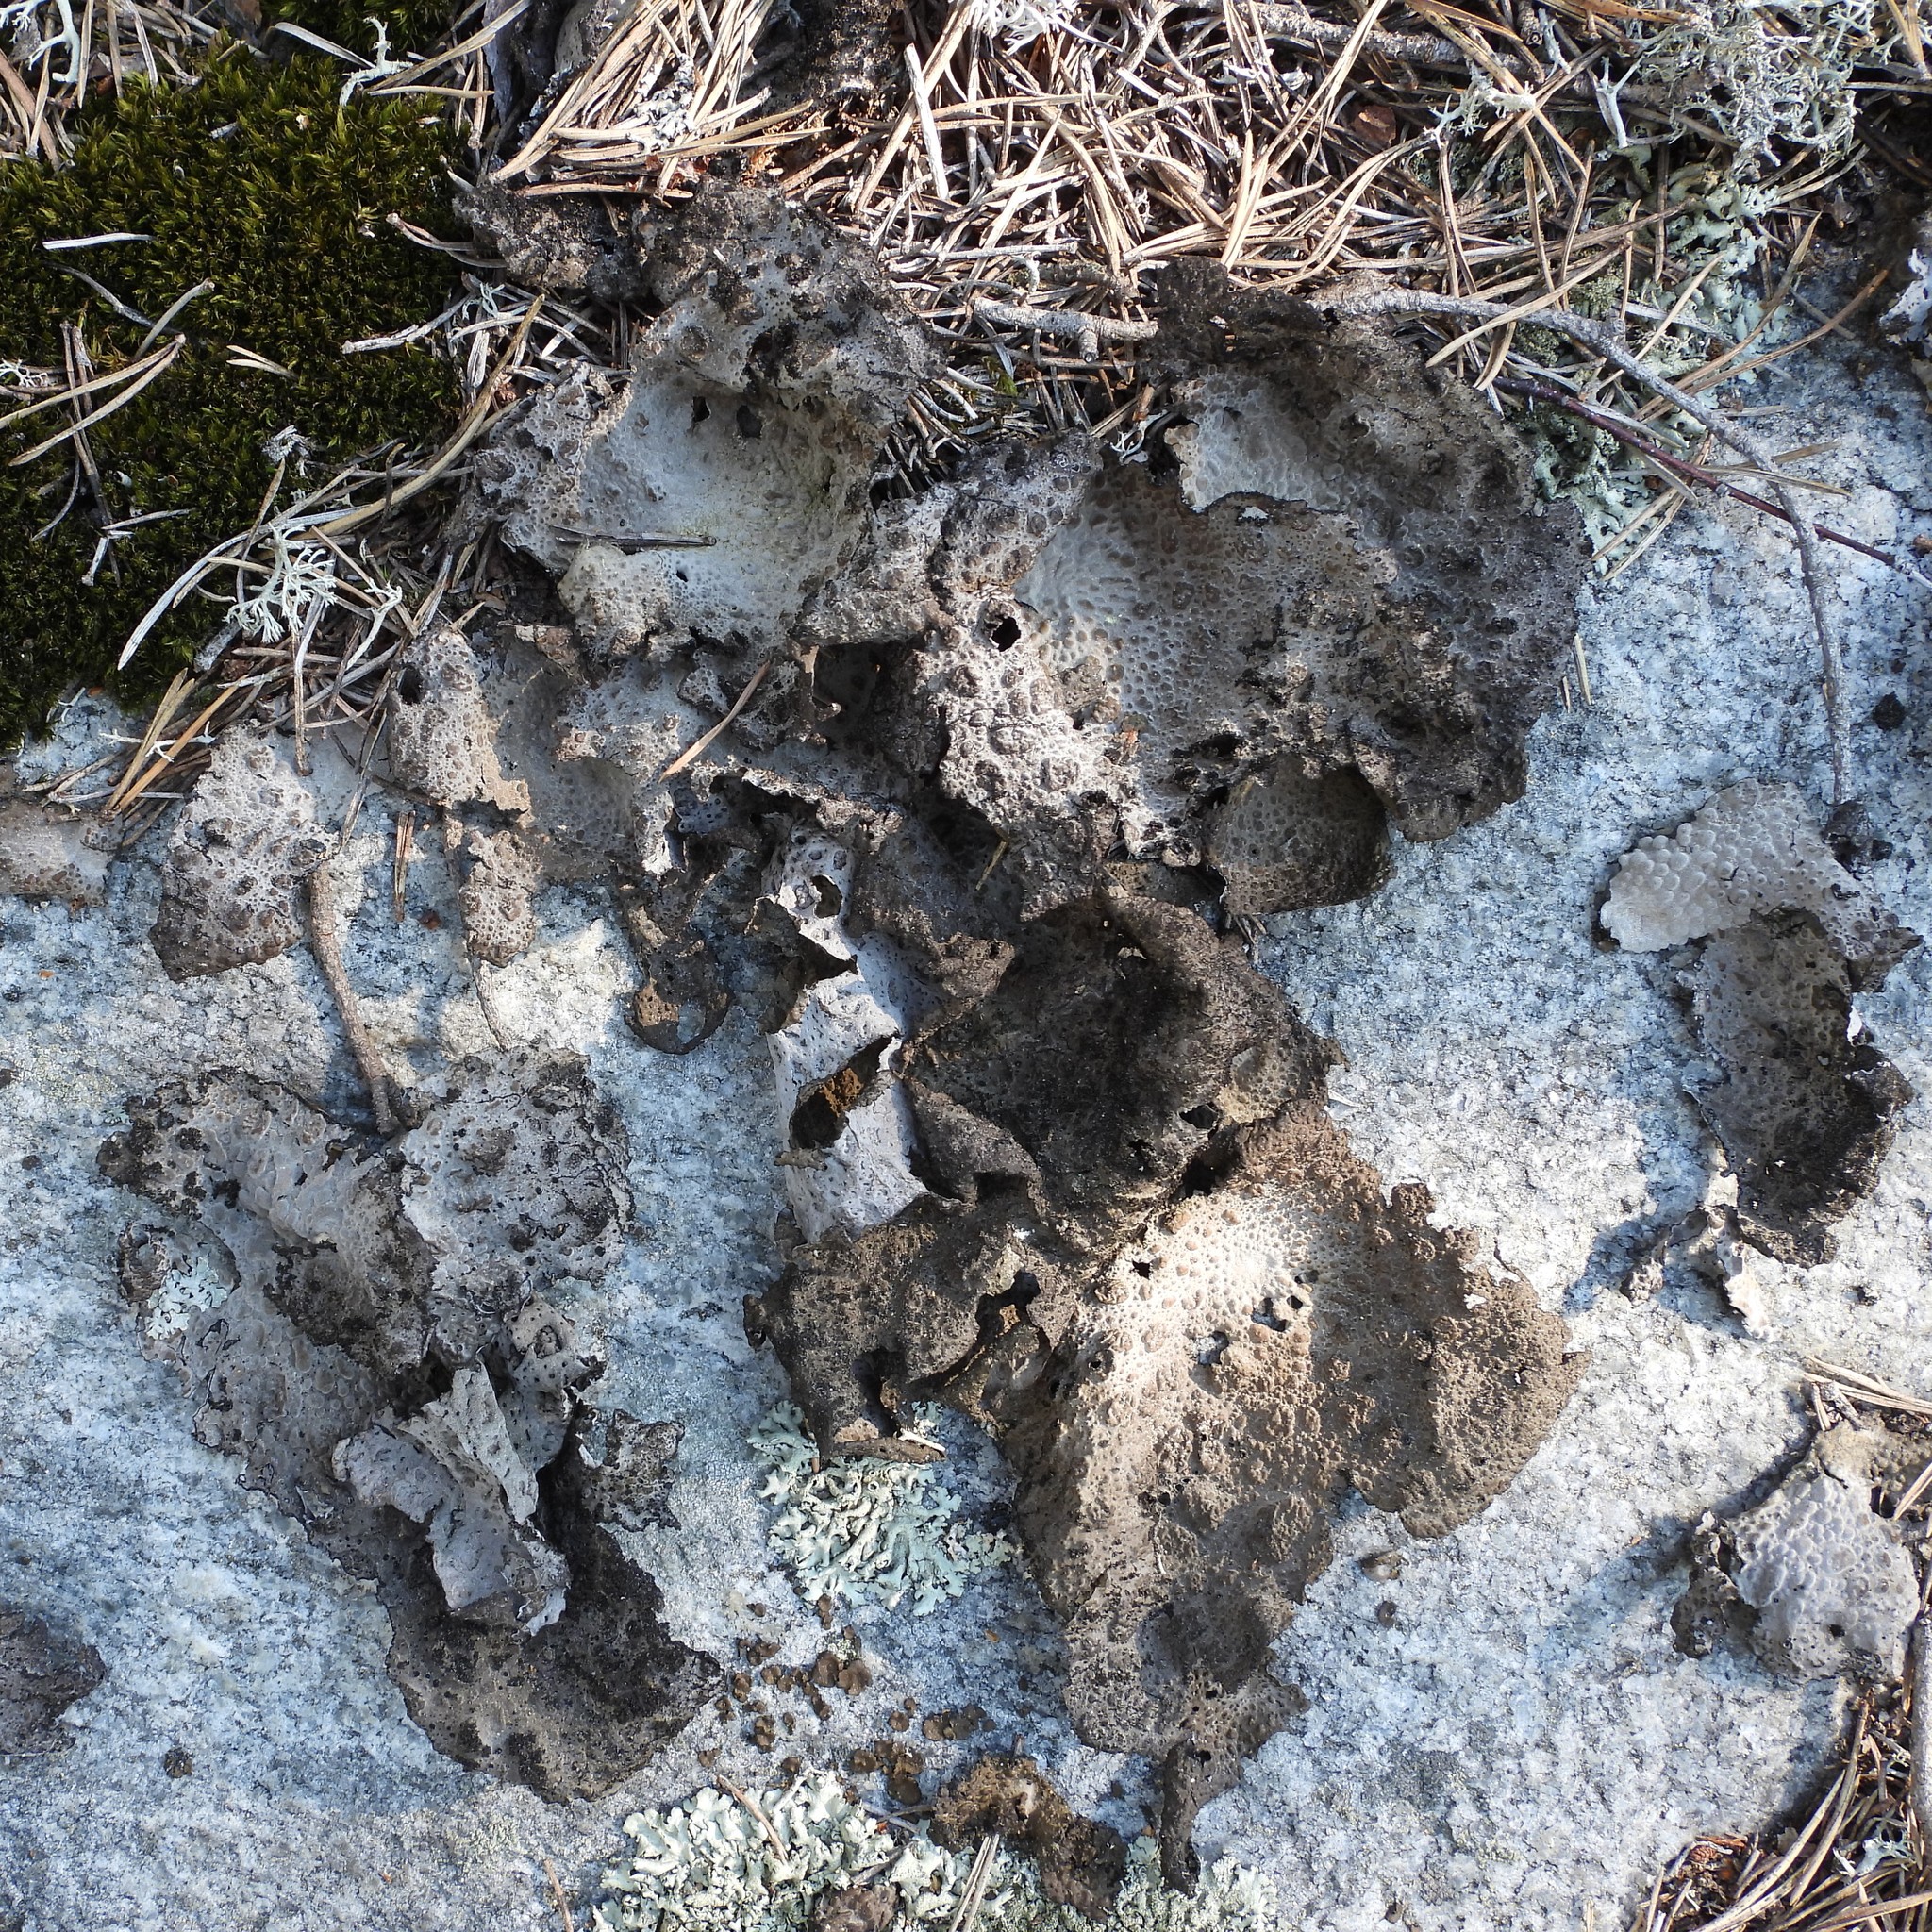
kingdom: Fungi
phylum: Ascomycota
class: Lecanoromycetes
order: Umbilicariales
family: Umbilicariaceae
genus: Lasallia
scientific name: Lasallia pustulata
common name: Blistered toadskin lichen
